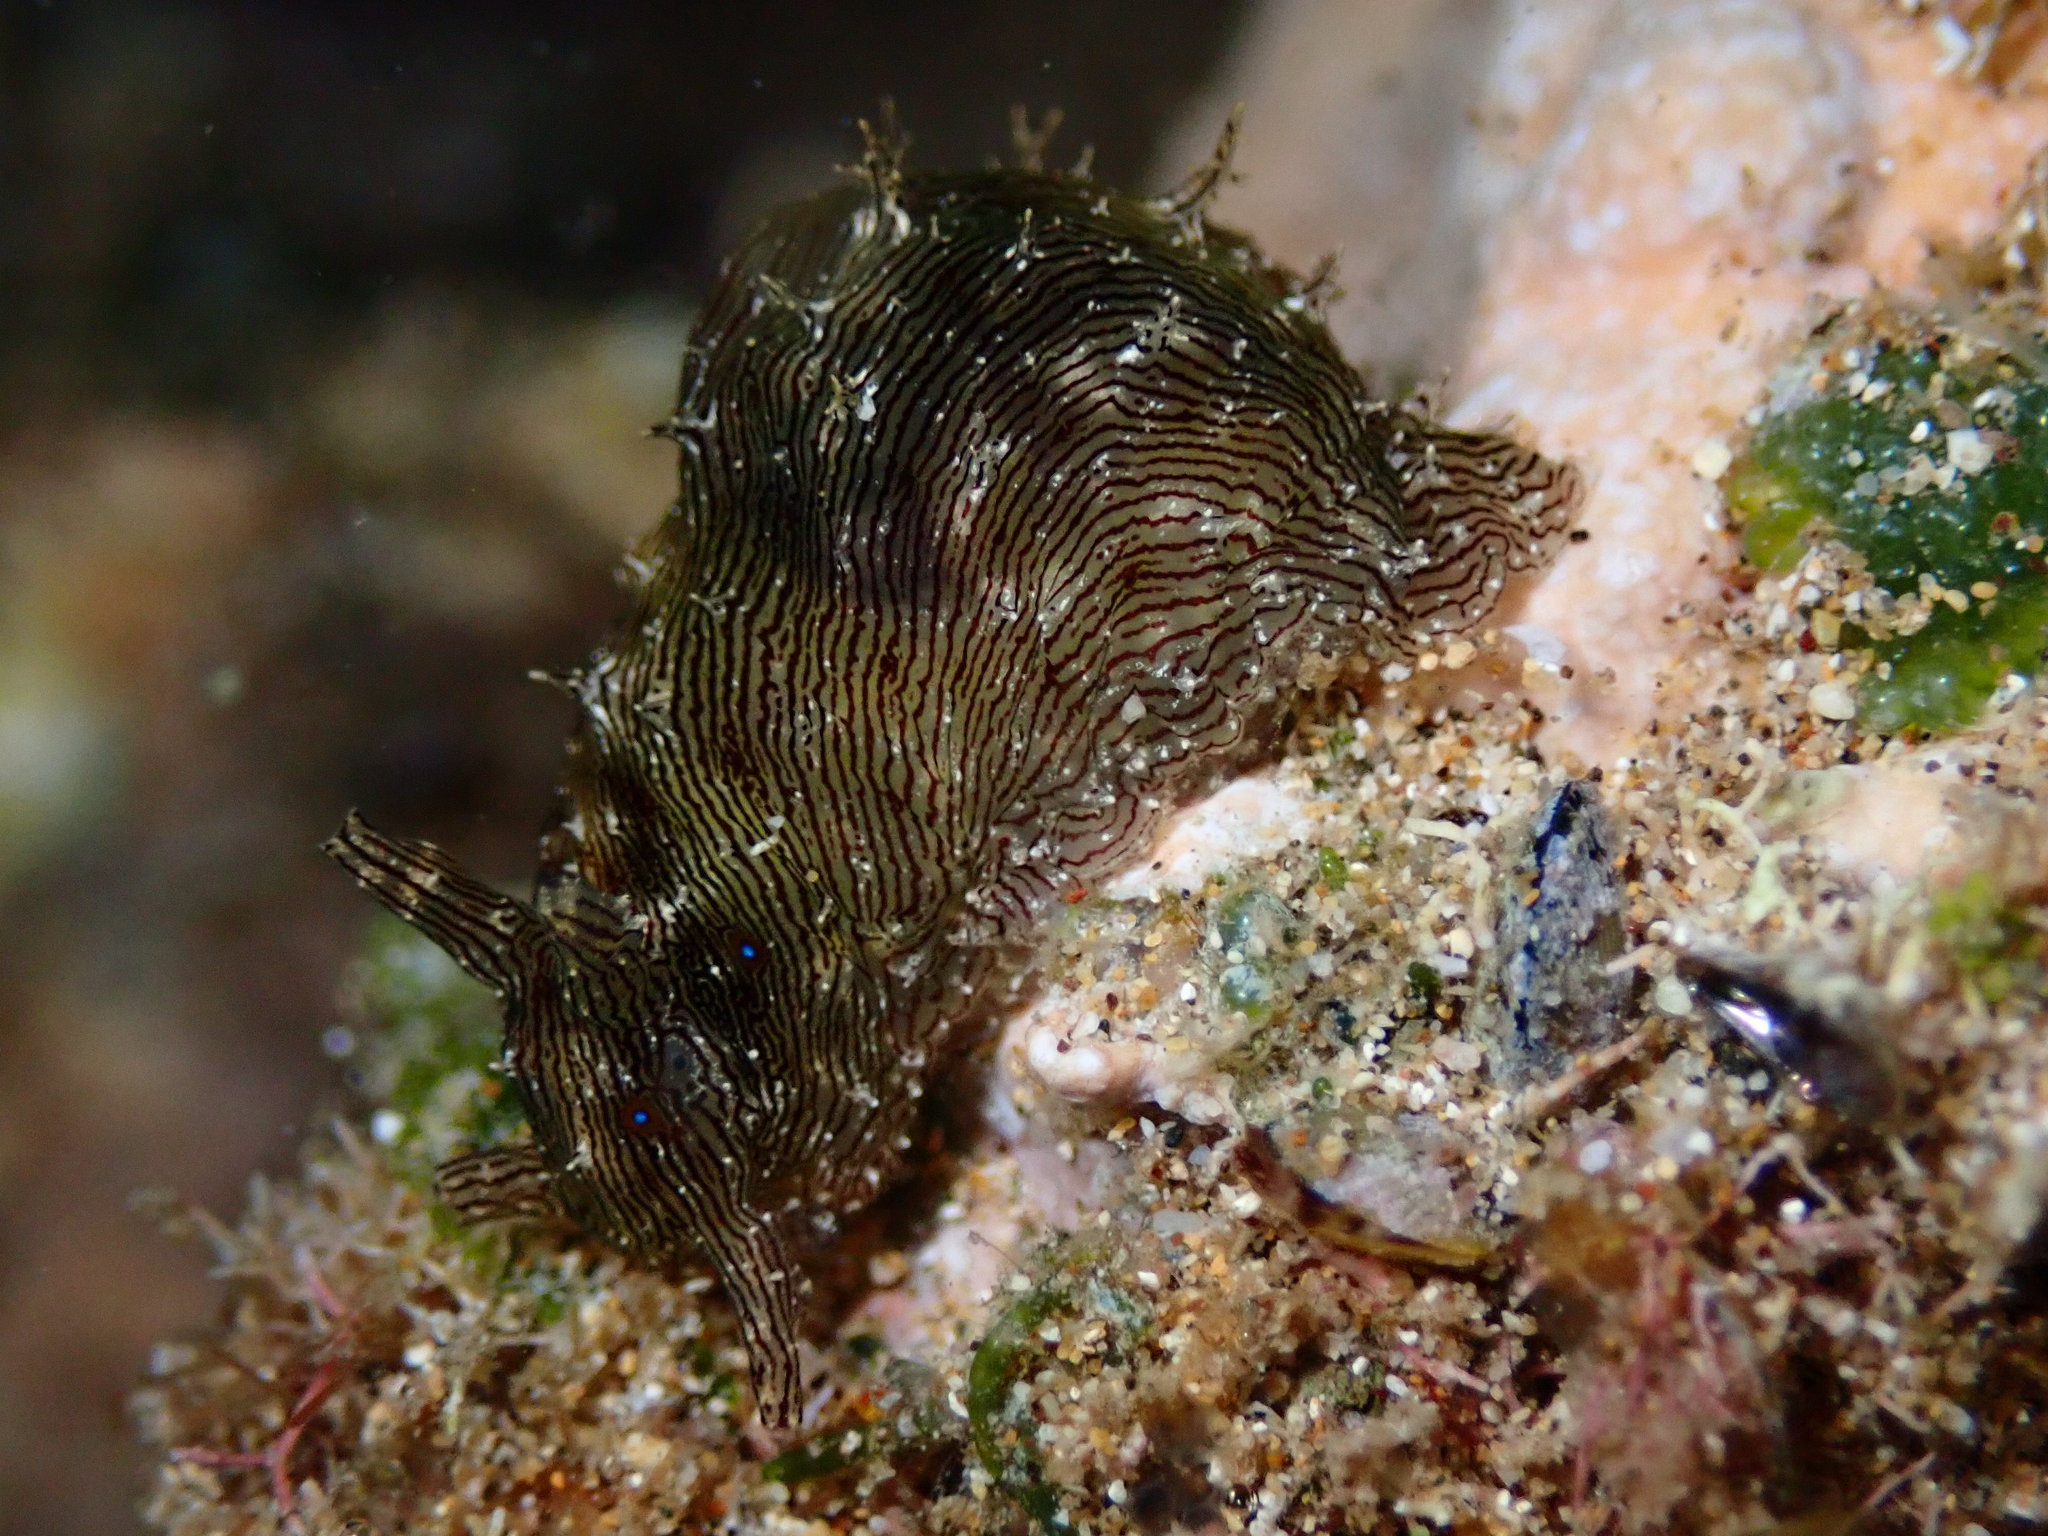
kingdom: Animalia
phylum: Mollusca
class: Gastropoda
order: Aplysiida
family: Aplysiidae
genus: Stylocheilus
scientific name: Stylocheilus striatus
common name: Striated seahare
